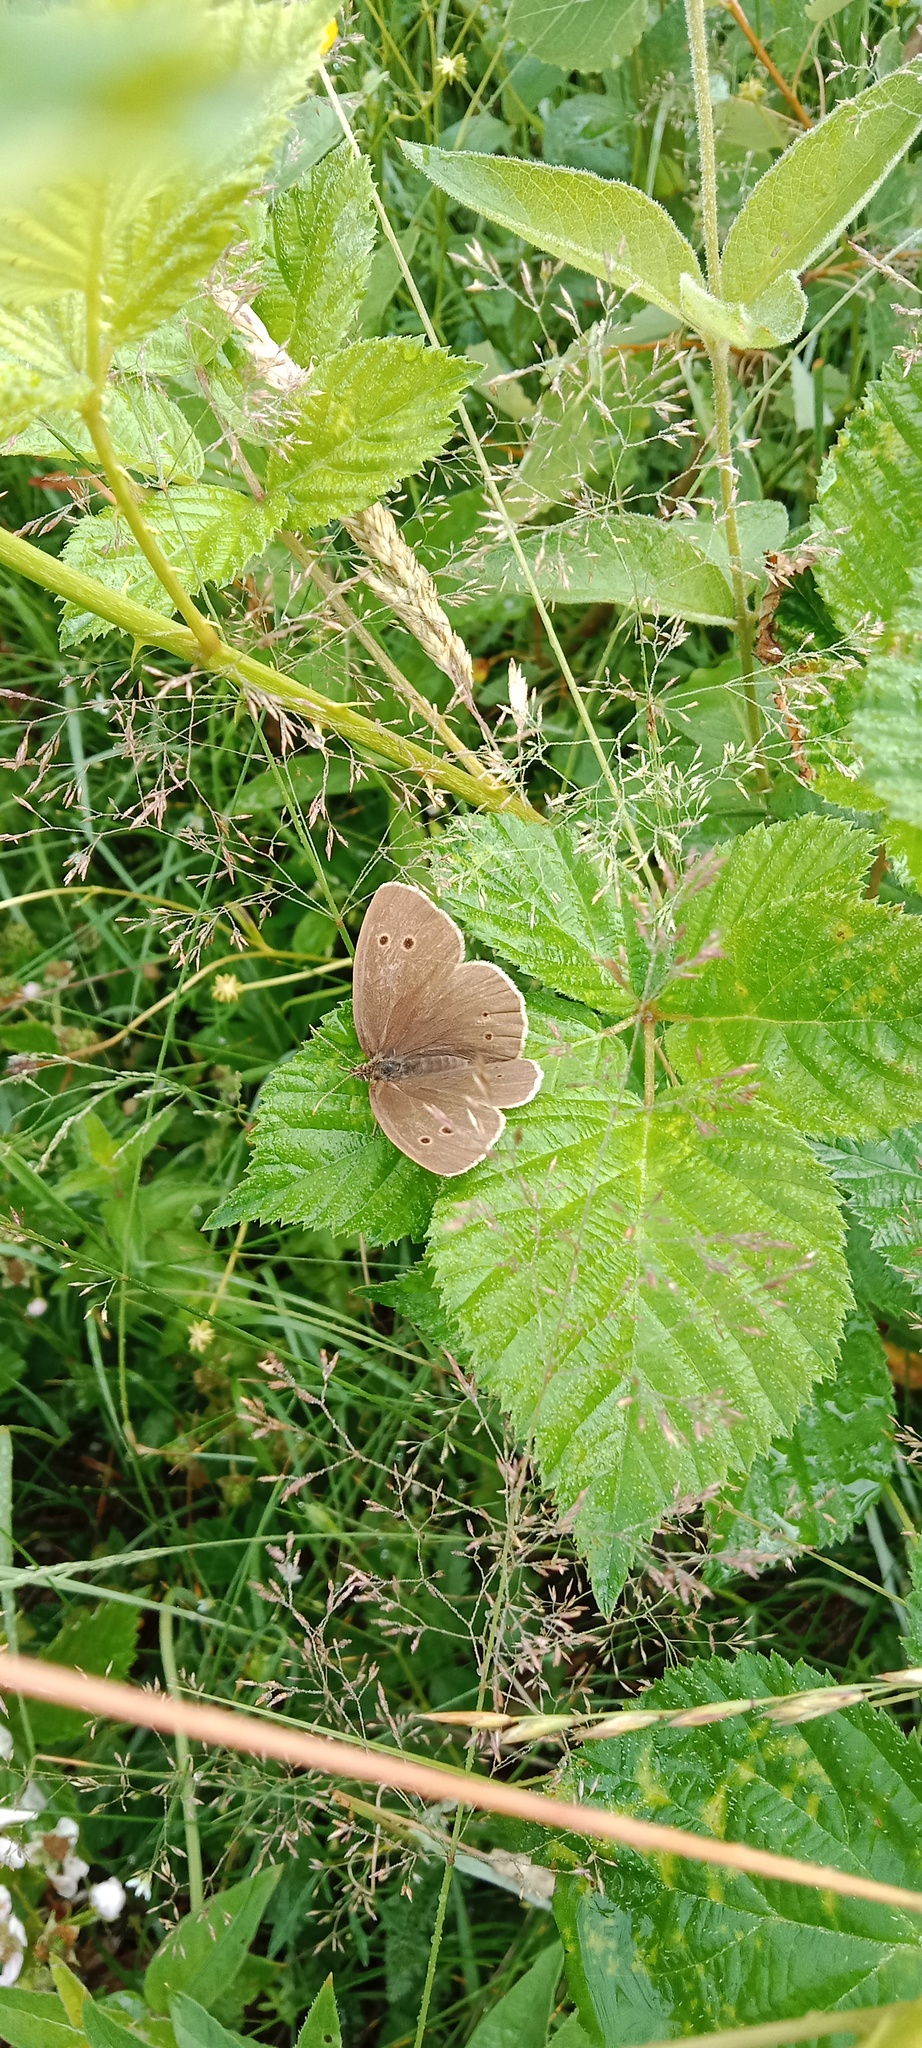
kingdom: Animalia
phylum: Arthropoda
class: Insecta
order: Lepidoptera
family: Nymphalidae
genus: Aphantopus
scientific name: Aphantopus hyperantus
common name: Ringlet
